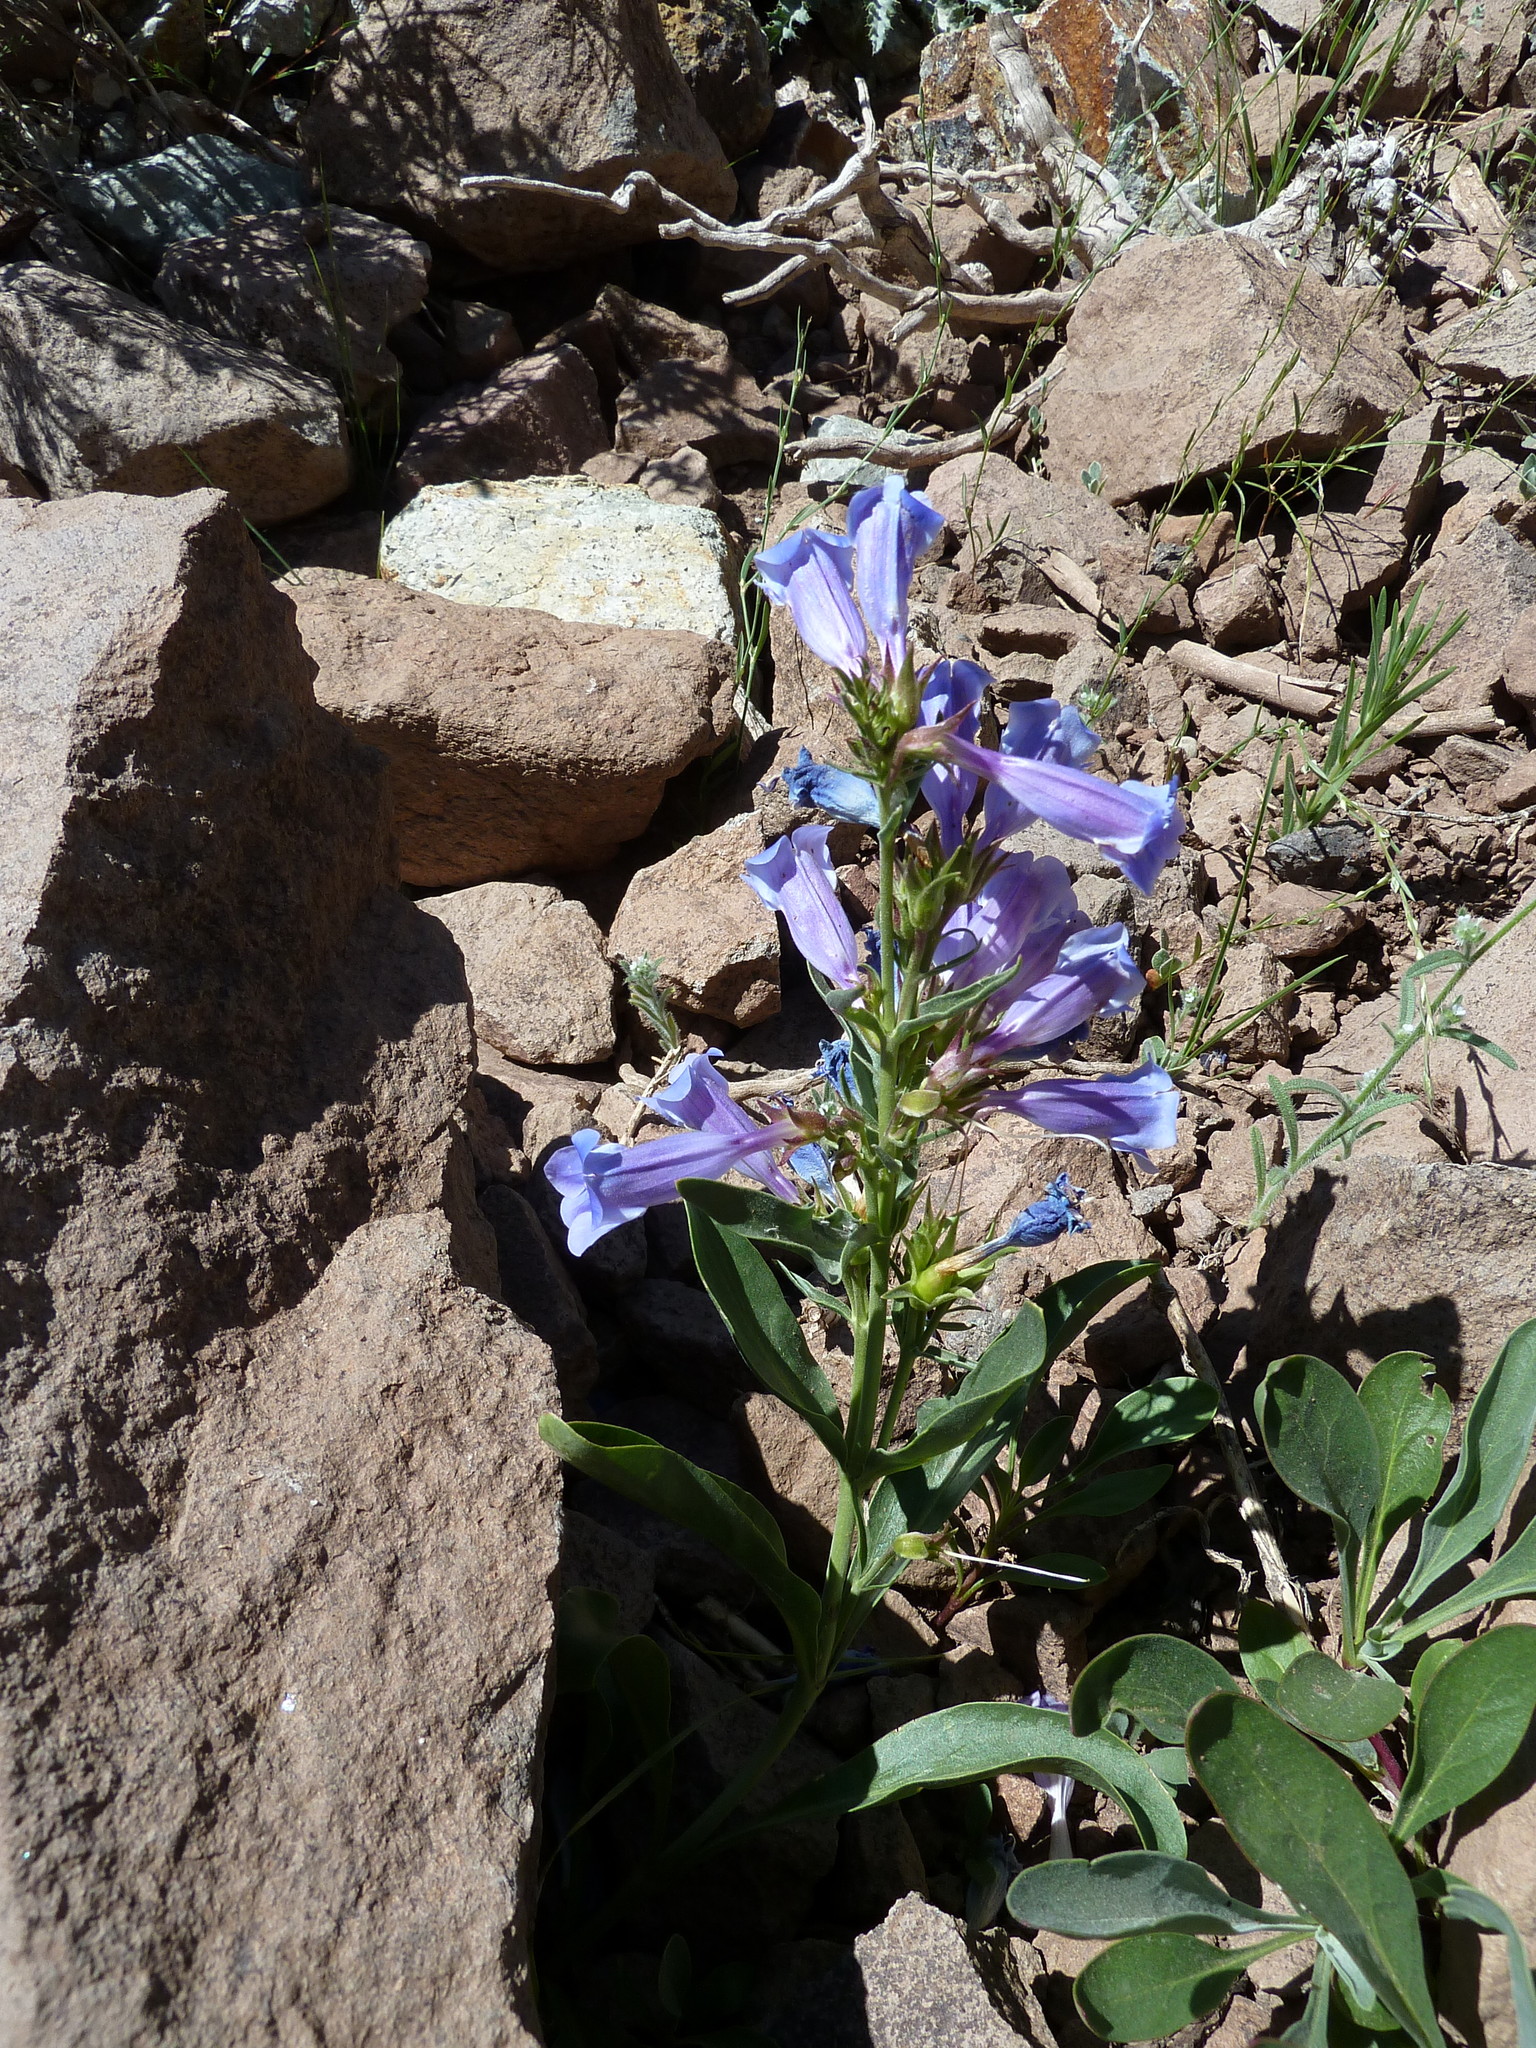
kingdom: Plantae
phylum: Tracheophyta
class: Magnoliopsida
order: Lamiales
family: Plantaginaceae
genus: Penstemon
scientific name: Penstemon speciosus
